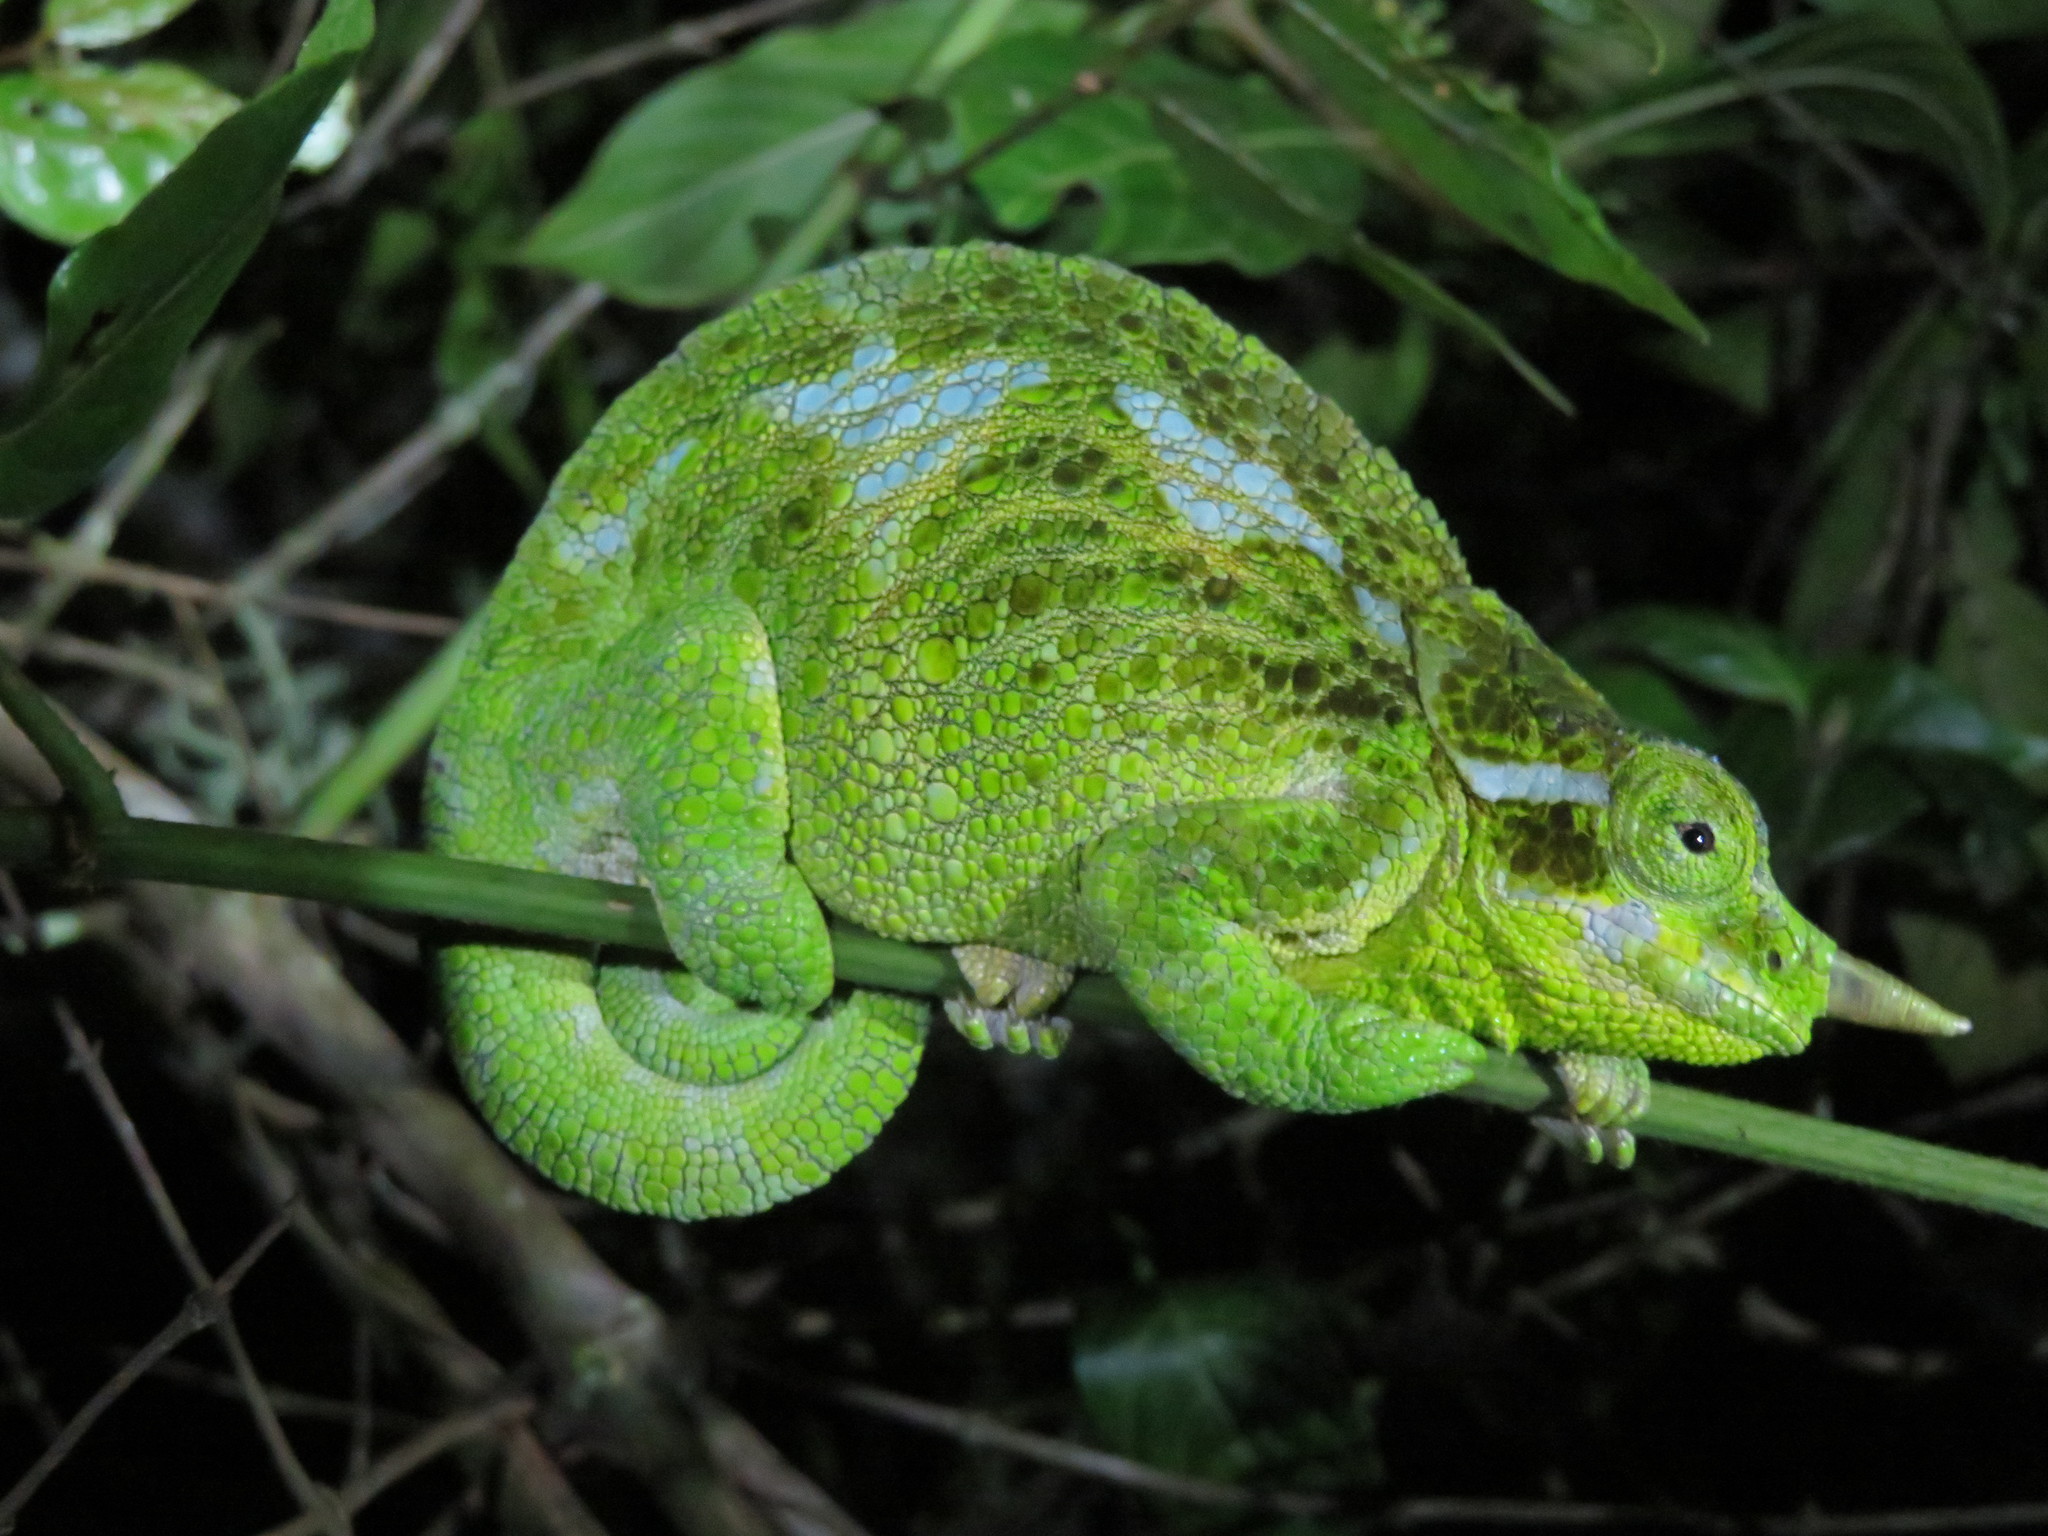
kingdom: Animalia
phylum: Chordata
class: Squamata
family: Chamaeleonidae
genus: Trioceros
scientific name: Trioceros werneri
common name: Wemer's chameleon
